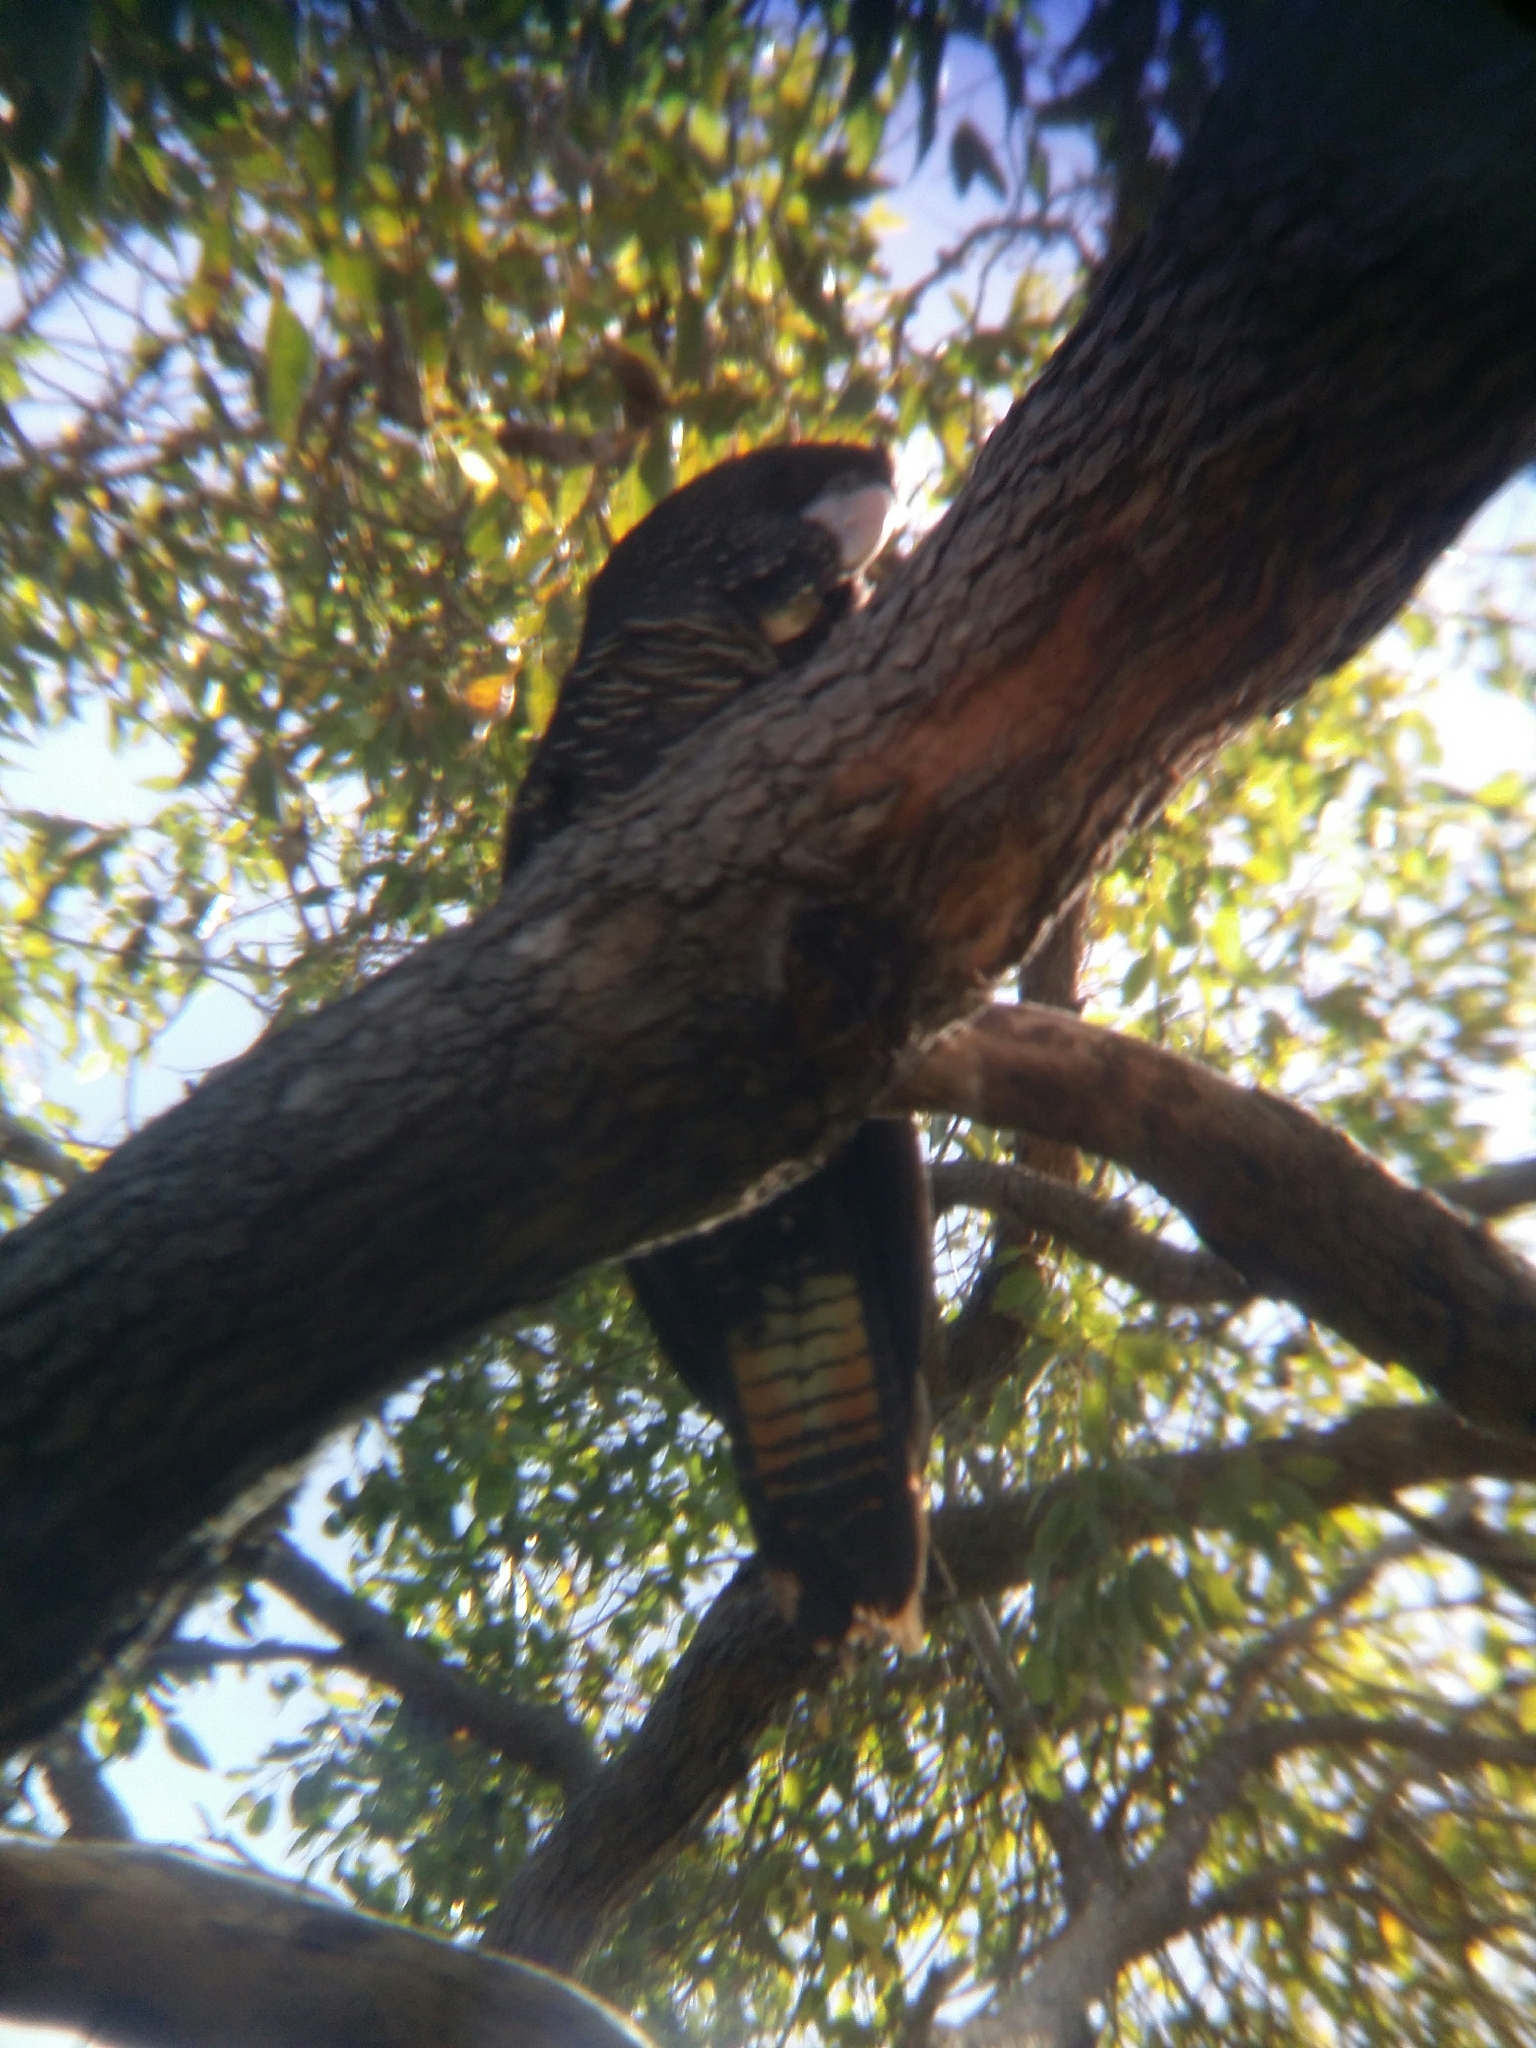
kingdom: Animalia
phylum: Chordata
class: Aves
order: Psittaciformes
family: Psittacidae
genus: Calyptorhynchus
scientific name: Calyptorhynchus banksii
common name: Red-tailed black cockatoo
